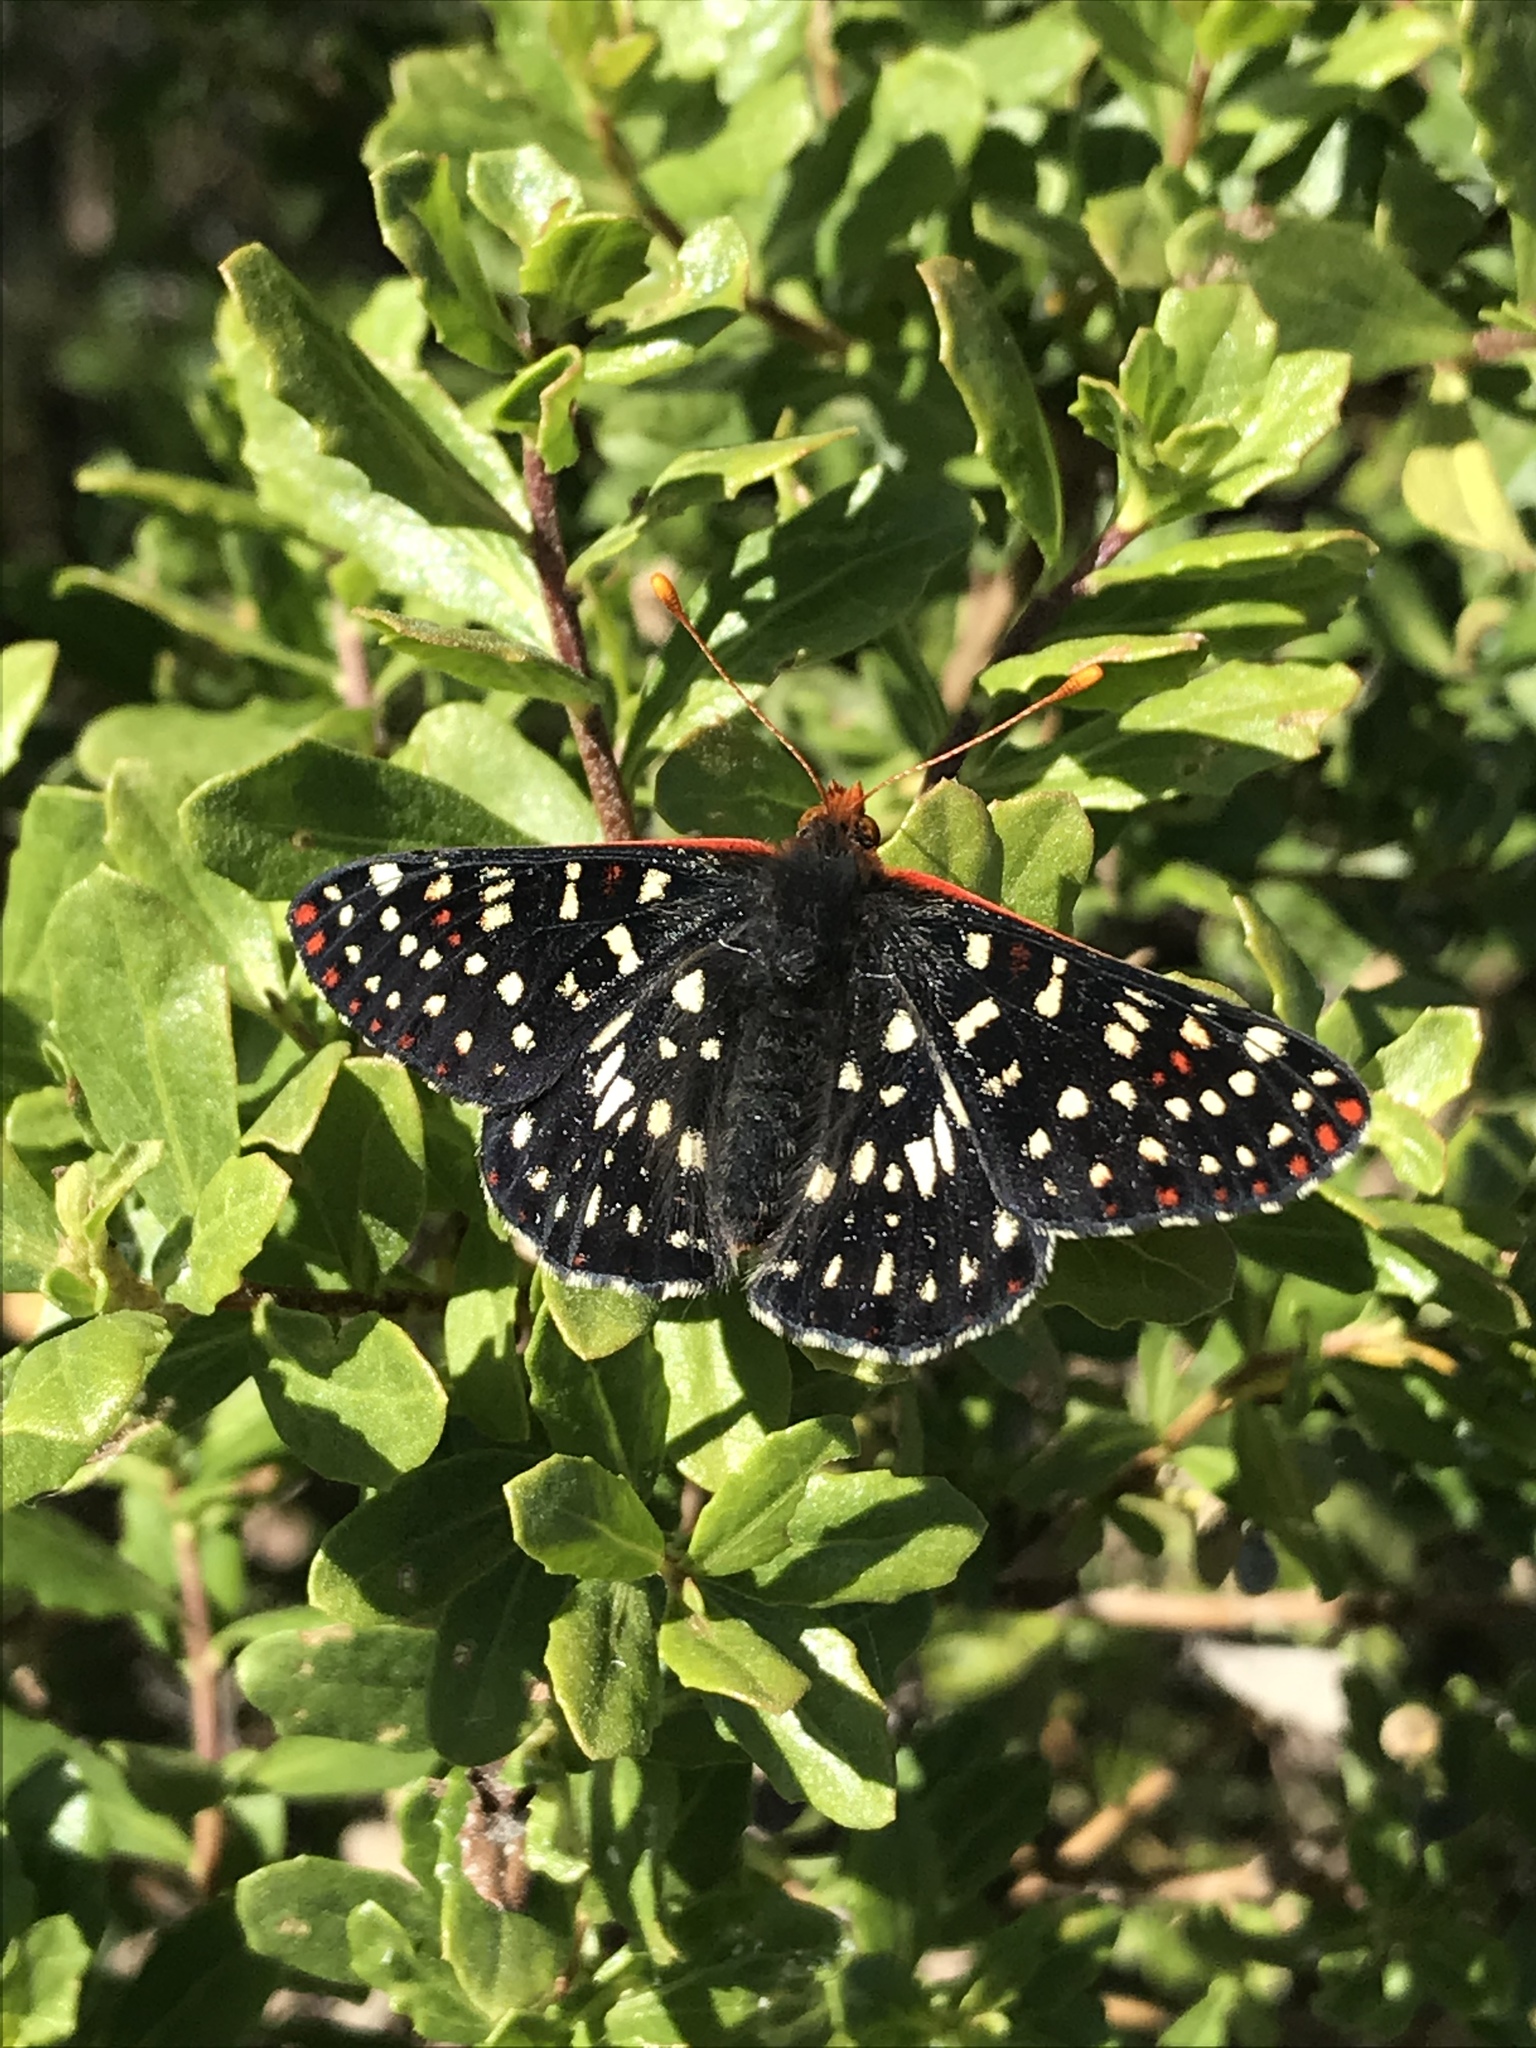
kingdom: Animalia
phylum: Arthropoda
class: Insecta
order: Lepidoptera
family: Nymphalidae
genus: Occidryas
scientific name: Occidryas chalcedona
